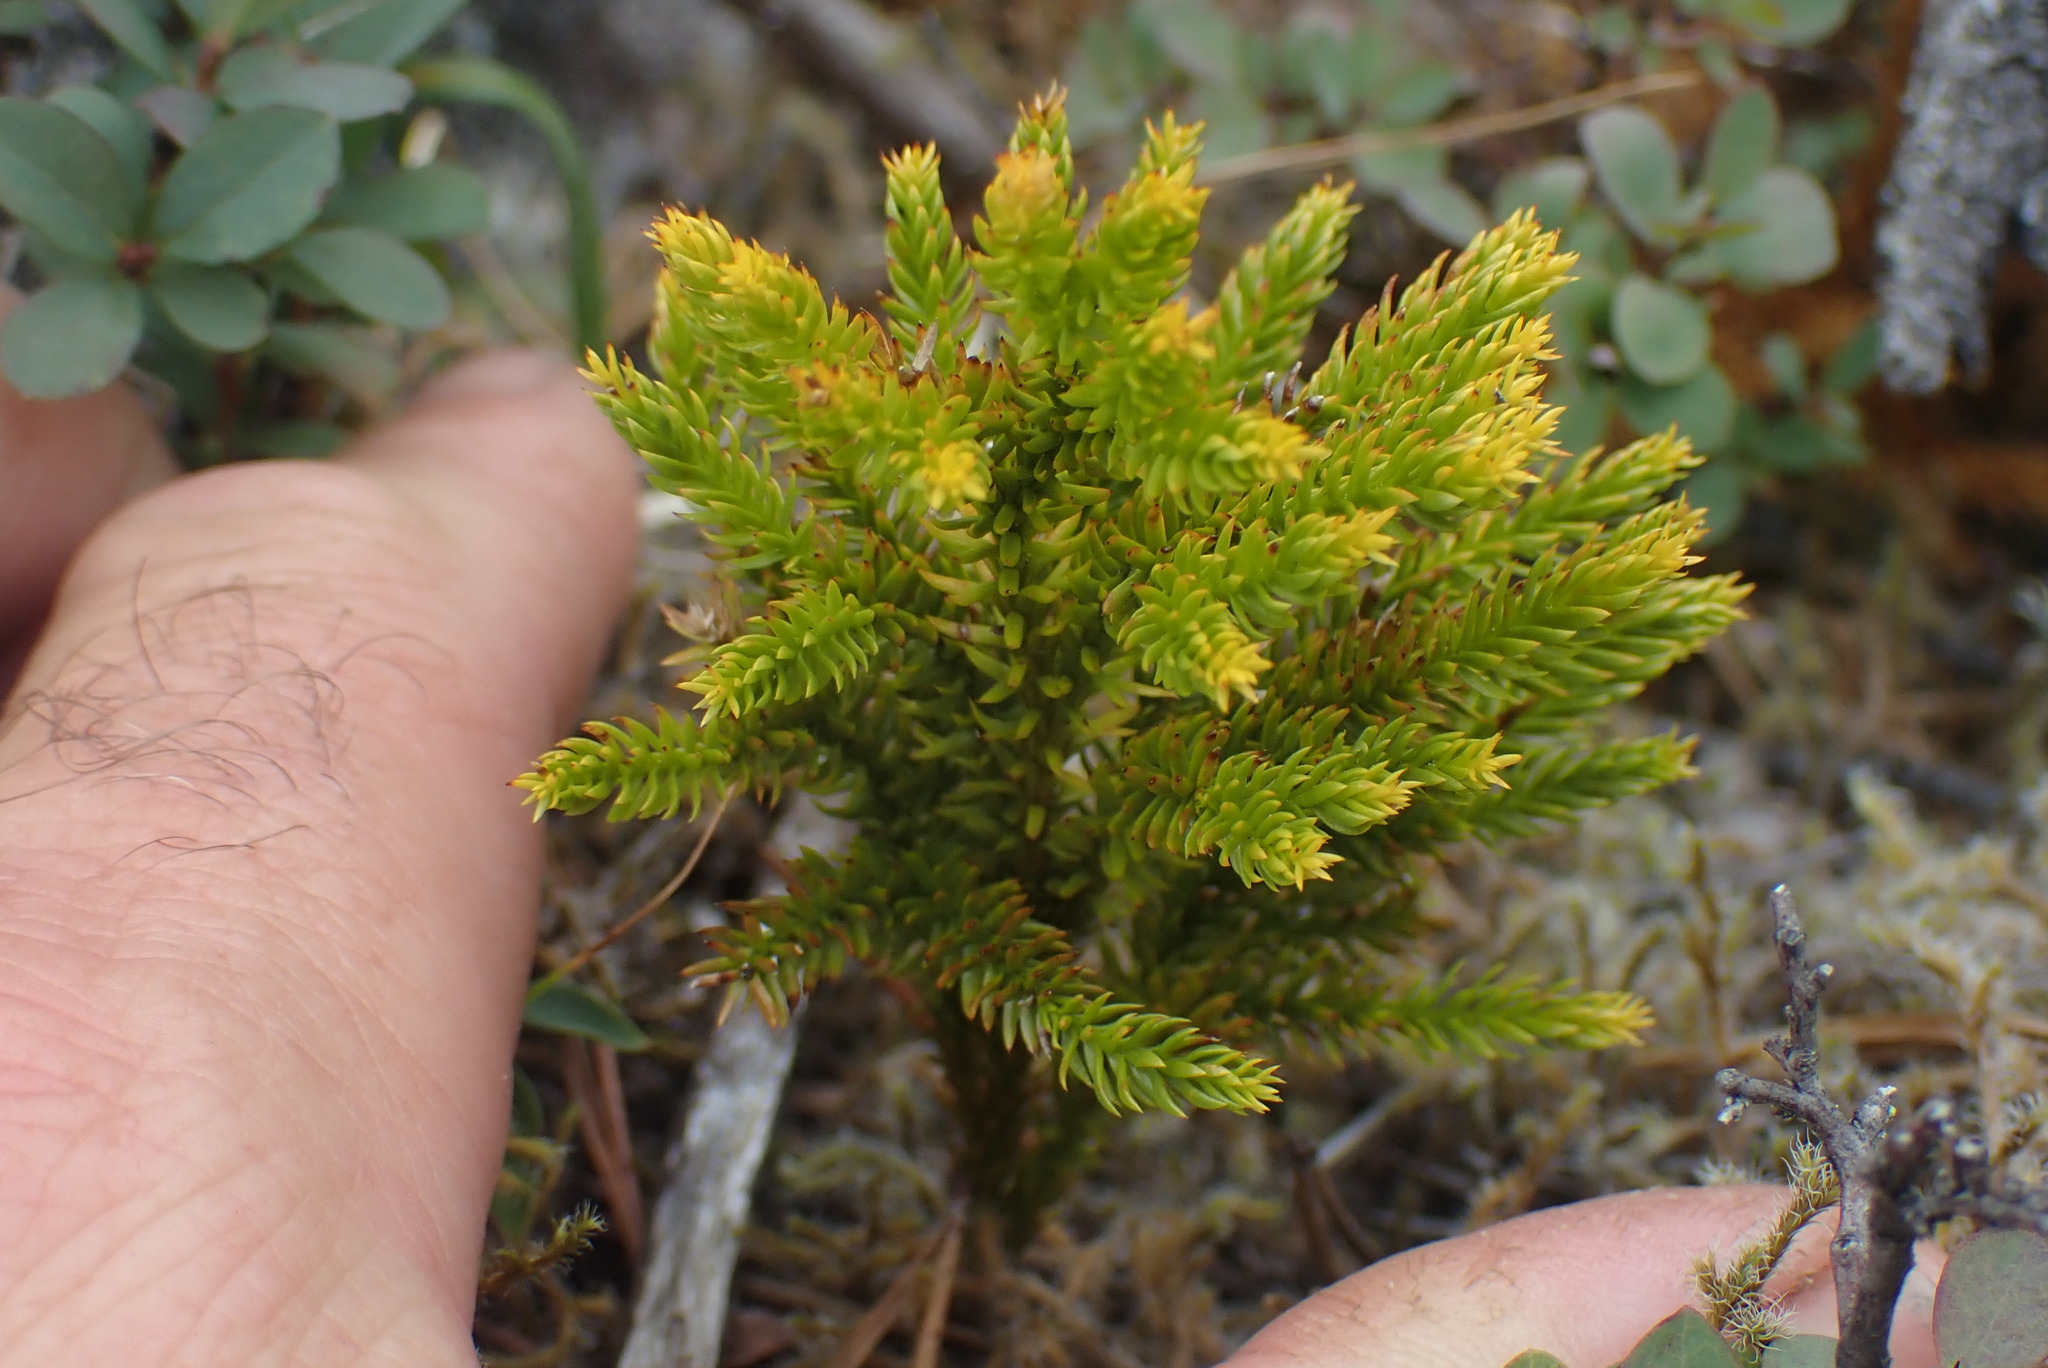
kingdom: Plantae
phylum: Tracheophyta
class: Lycopodiopsida
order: Lycopodiales
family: Lycopodiaceae
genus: Dendrolycopodium
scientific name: Dendrolycopodium dendroideum
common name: Northern tree-clubmoss
